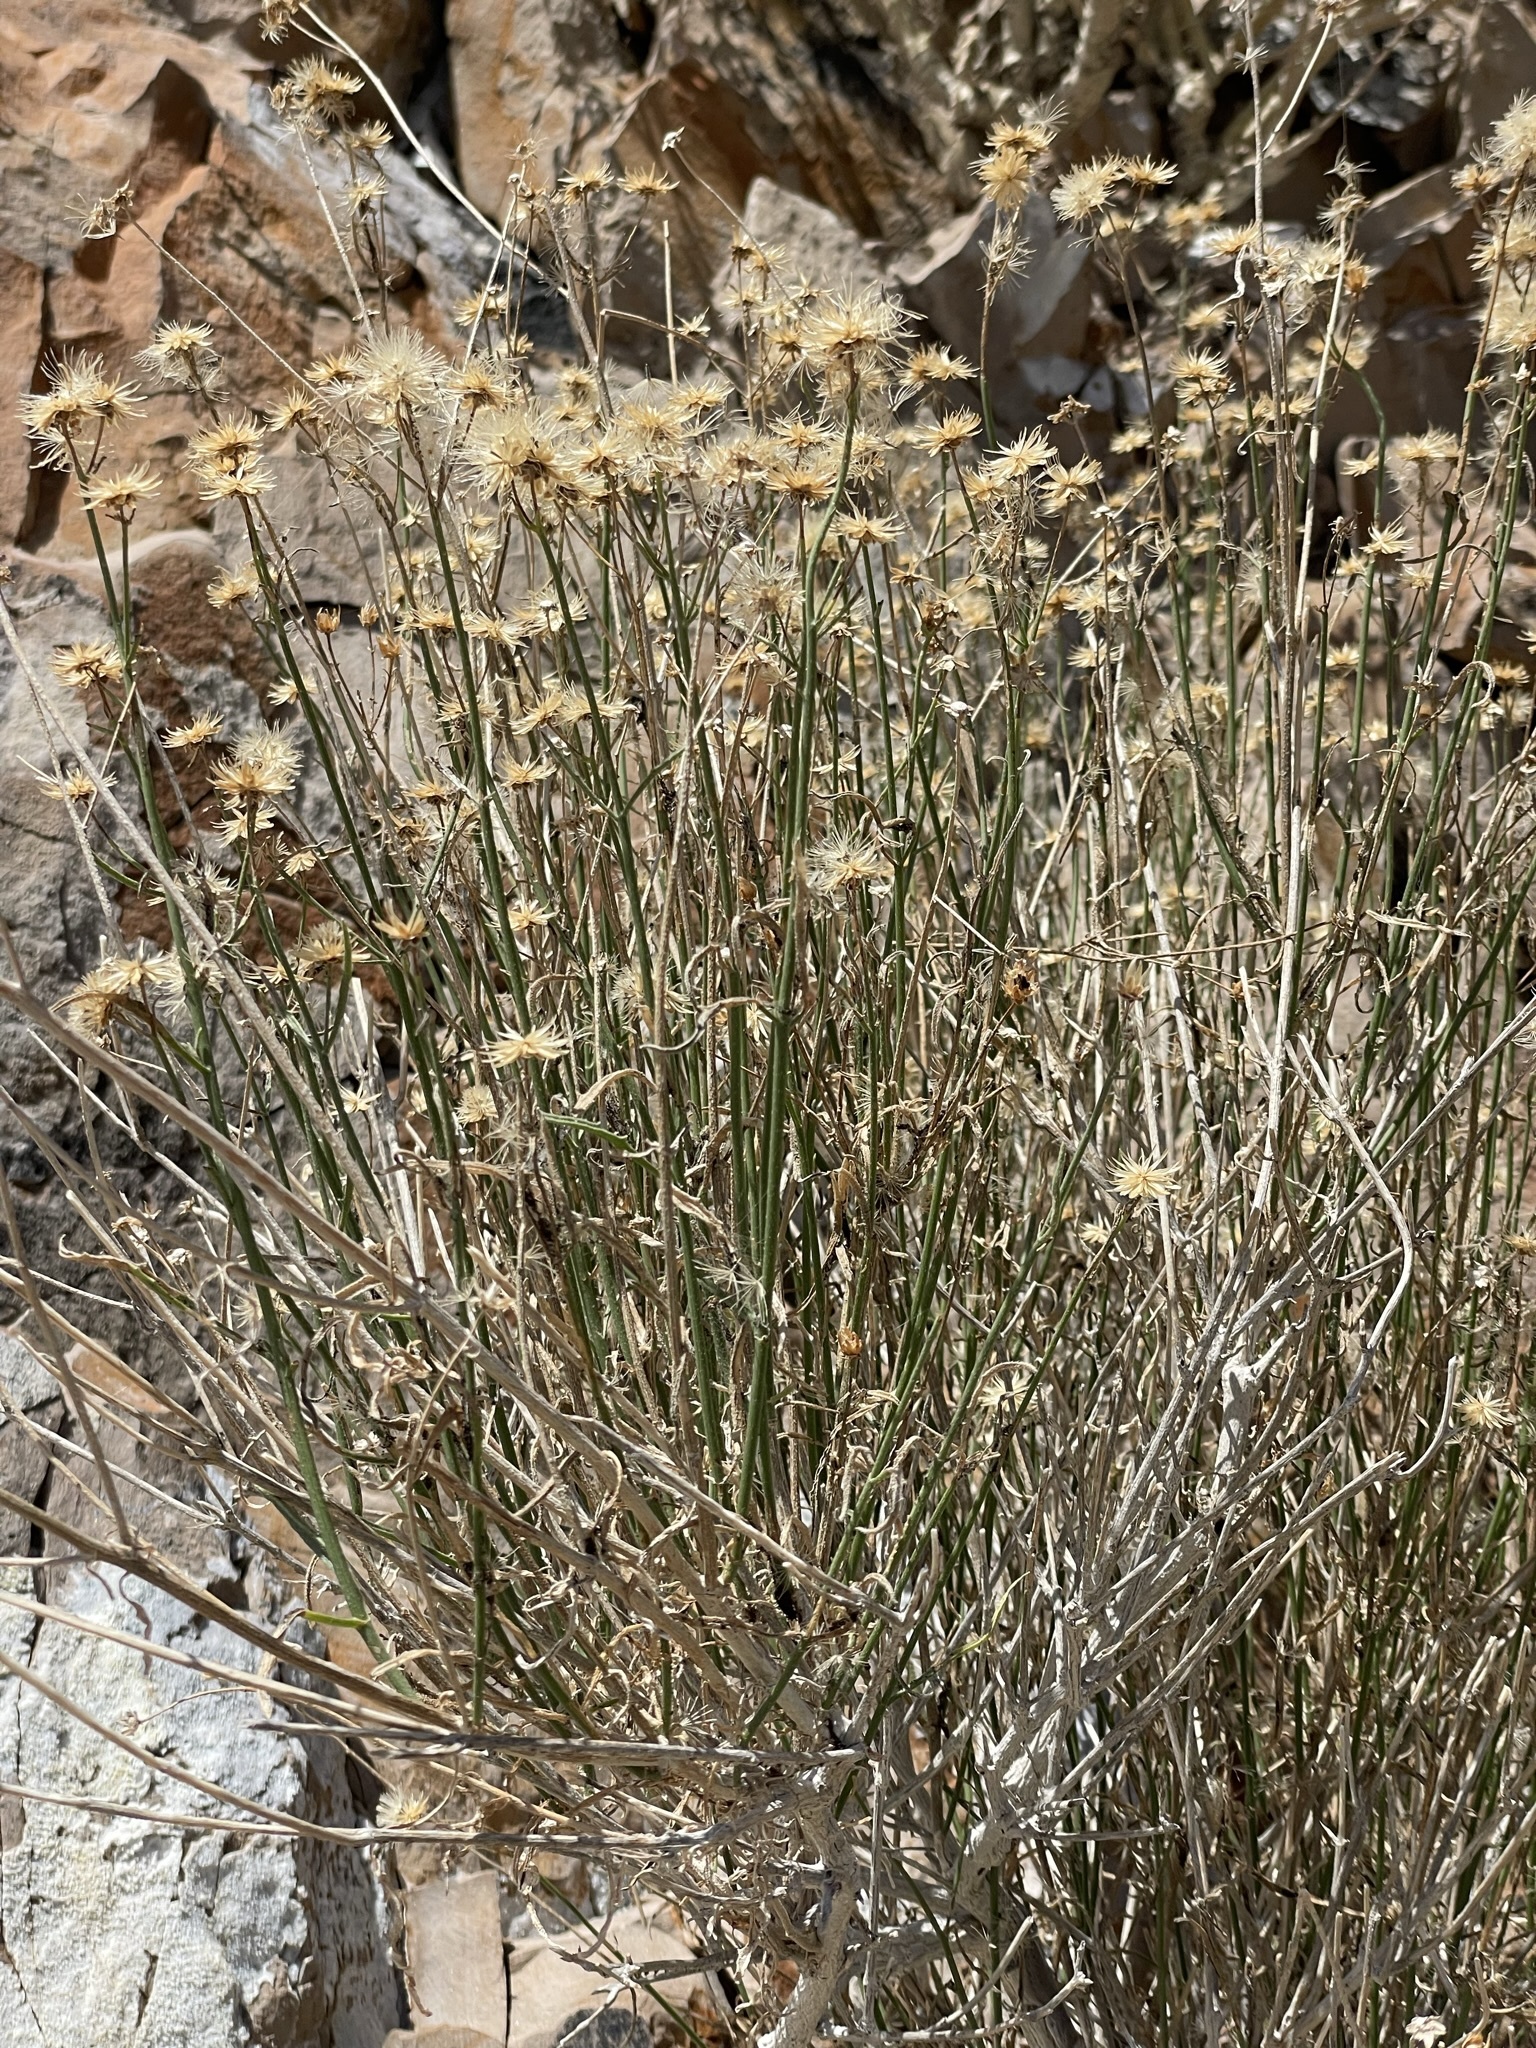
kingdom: Plantae
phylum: Tracheophyta
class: Magnoliopsida
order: Asterales
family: Asteraceae
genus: Bebbia
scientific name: Bebbia juncea
